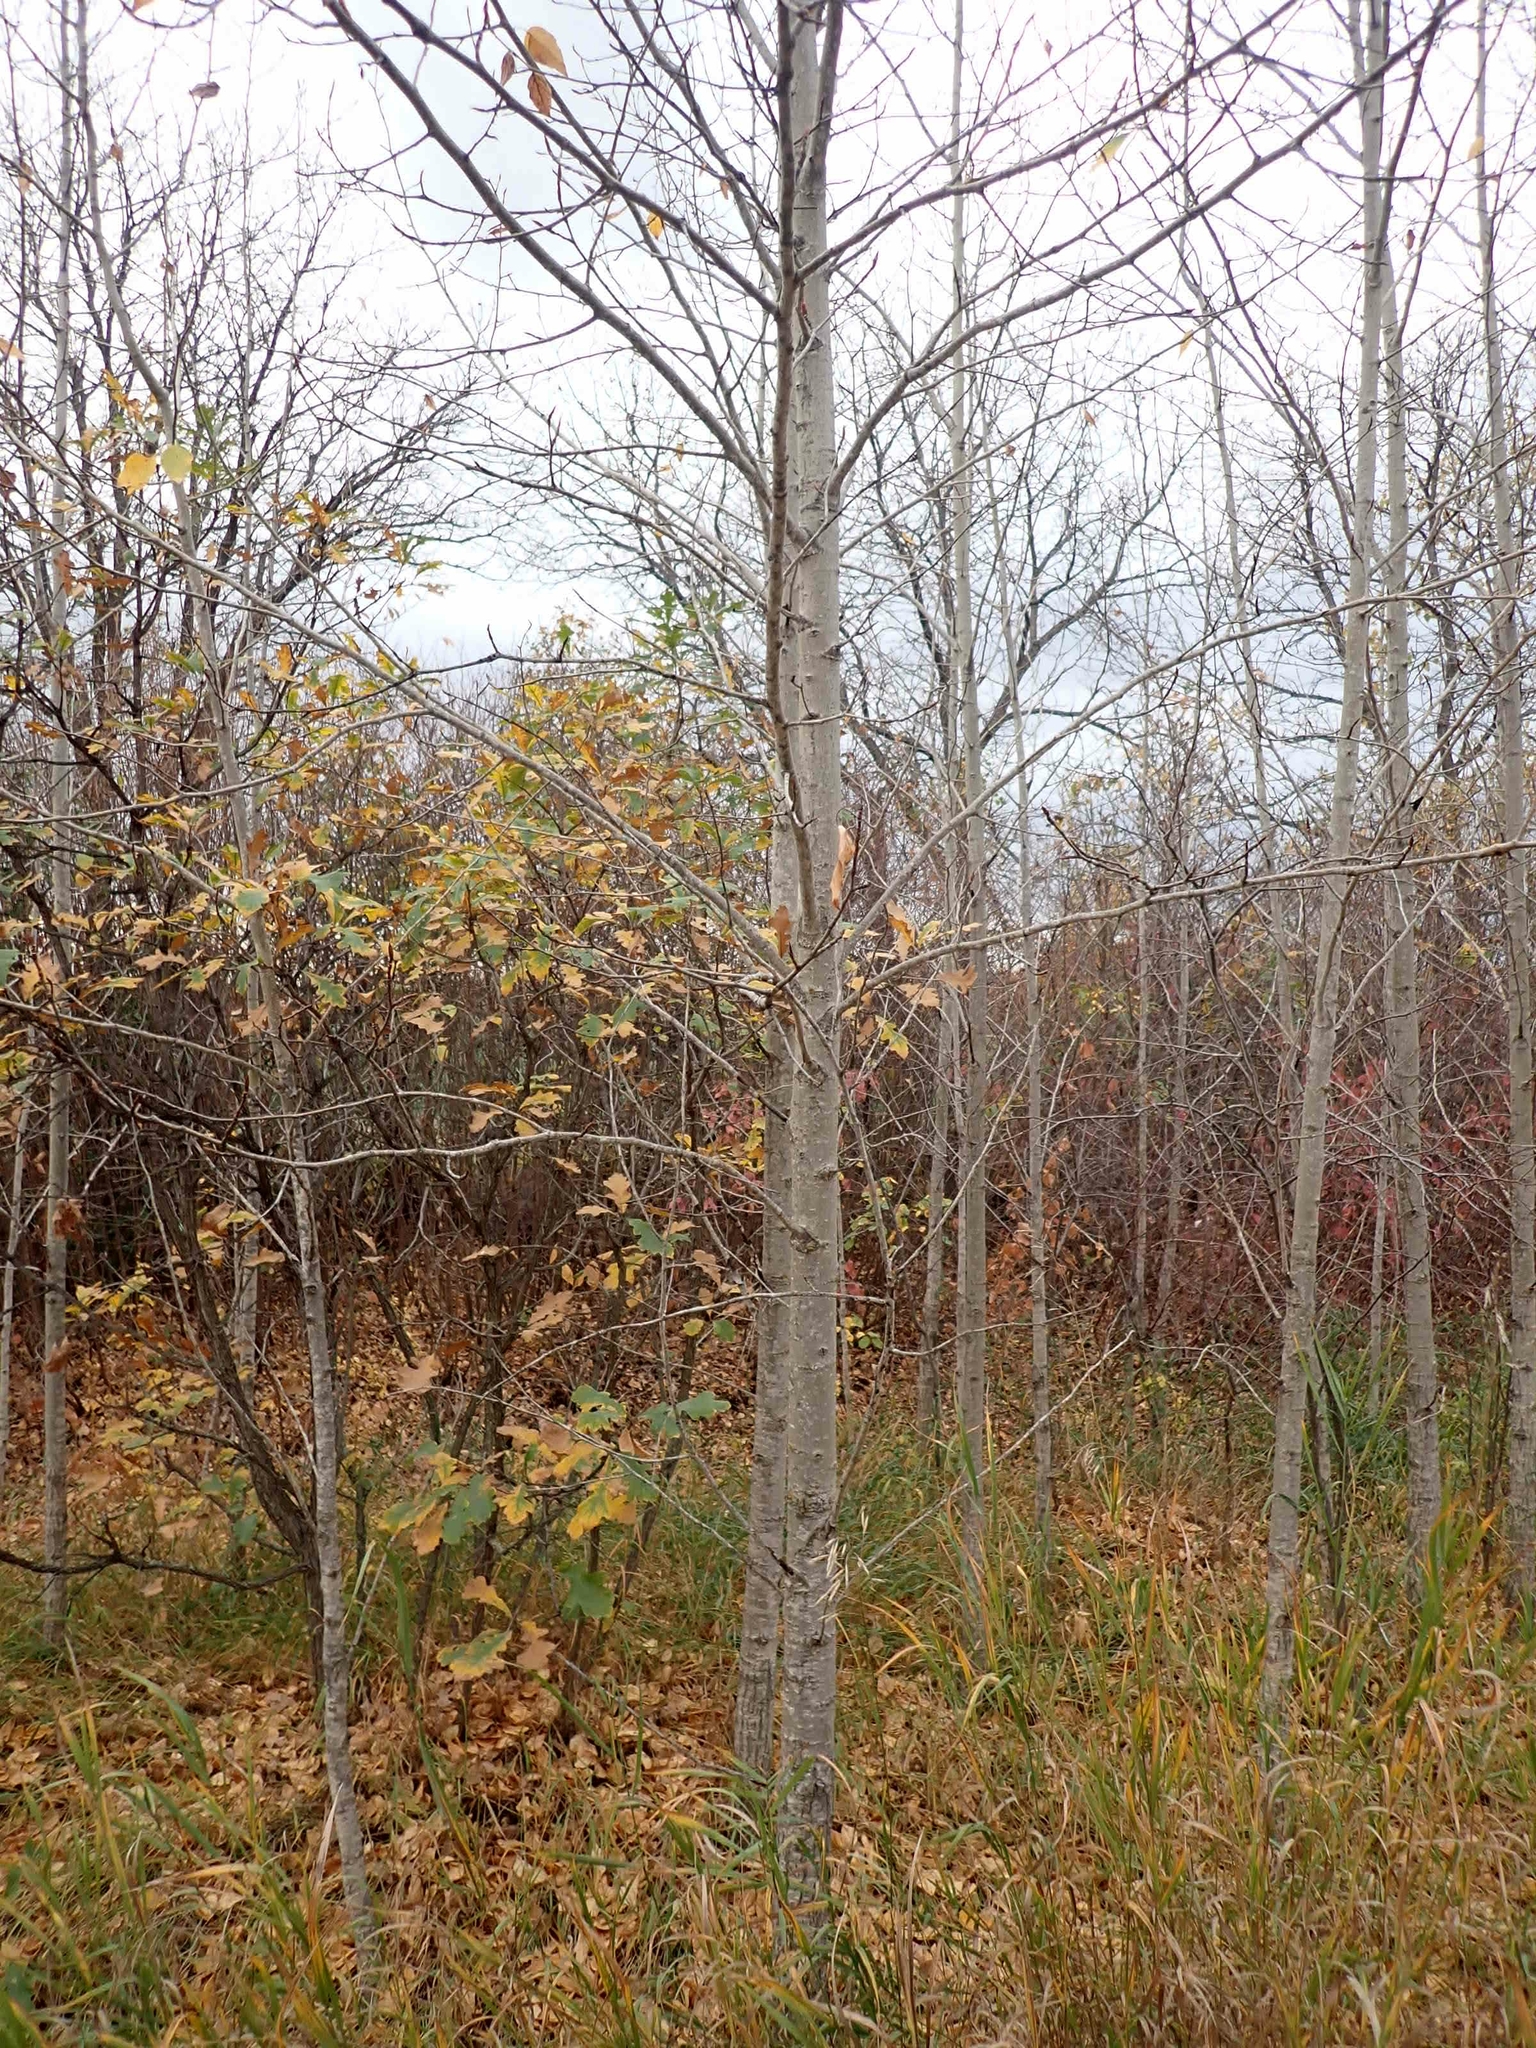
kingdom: Plantae
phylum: Tracheophyta
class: Magnoliopsida
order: Malpighiales
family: Salicaceae
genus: Populus
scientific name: Populus balsamifera
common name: Balsam poplar
